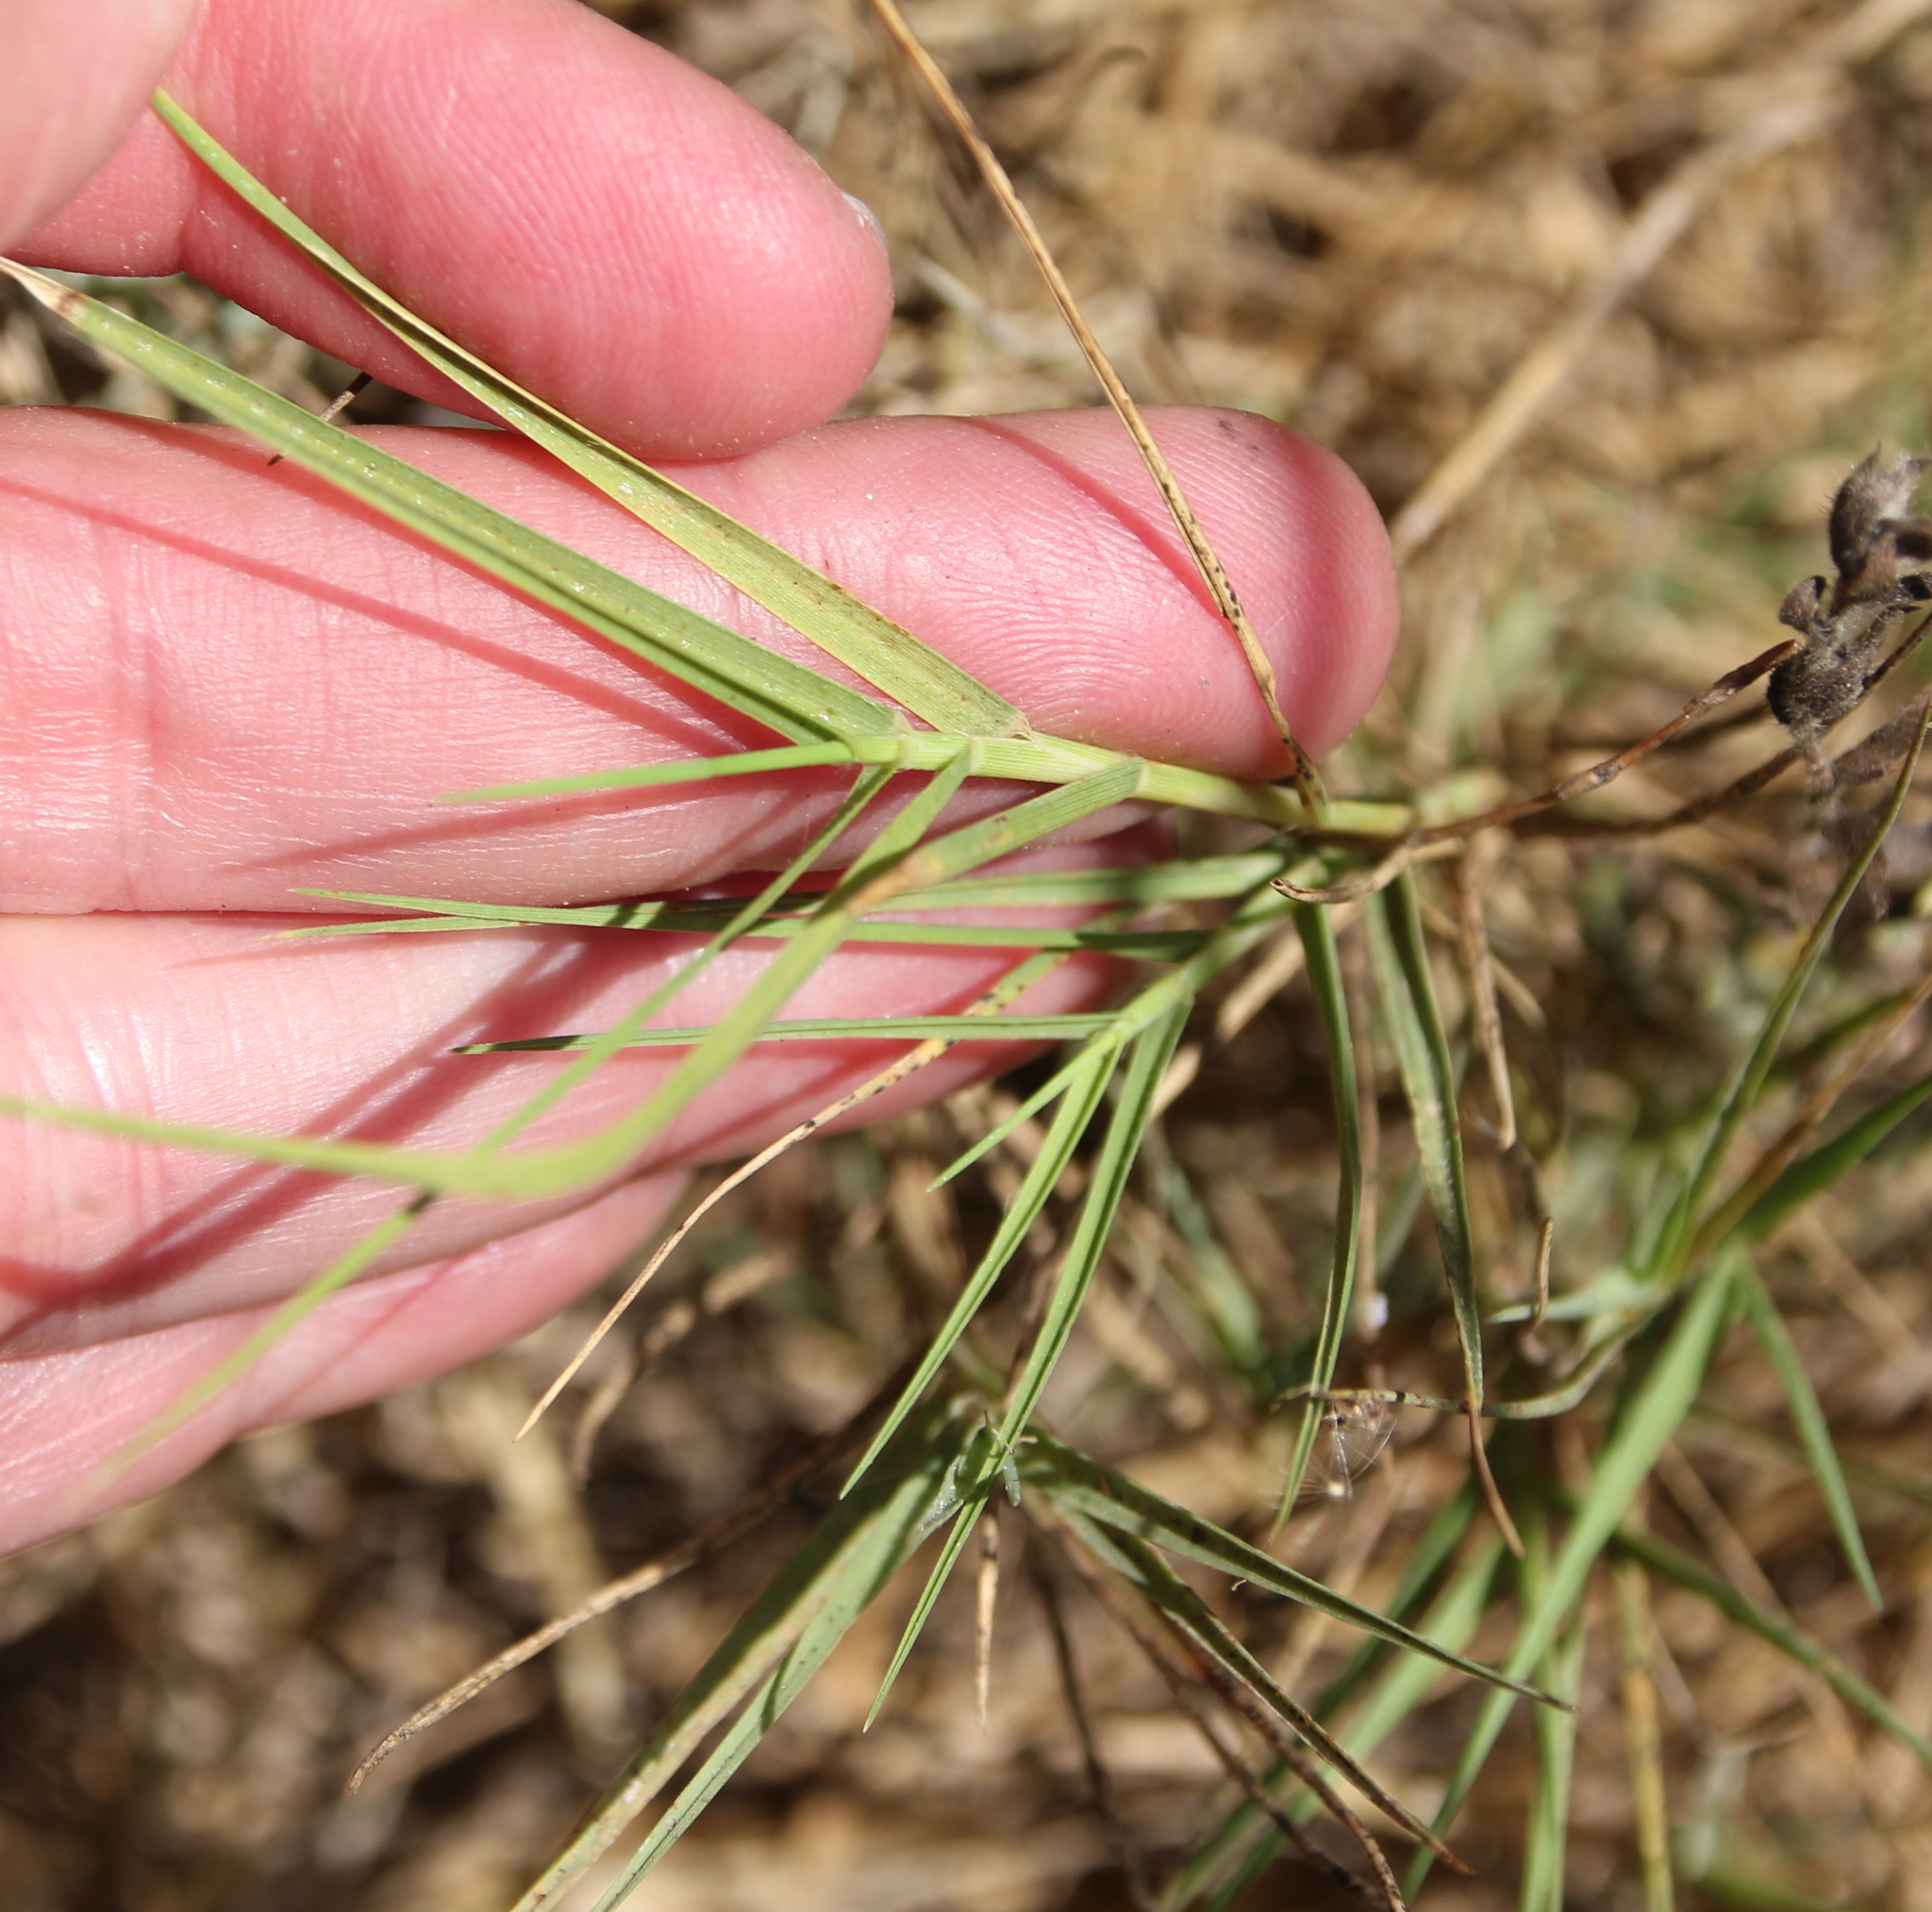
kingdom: Plantae
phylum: Tracheophyta
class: Liliopsida
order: Poales
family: Poaceae
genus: Distichlis
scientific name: Distichlis spicata
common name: Saltgrass
